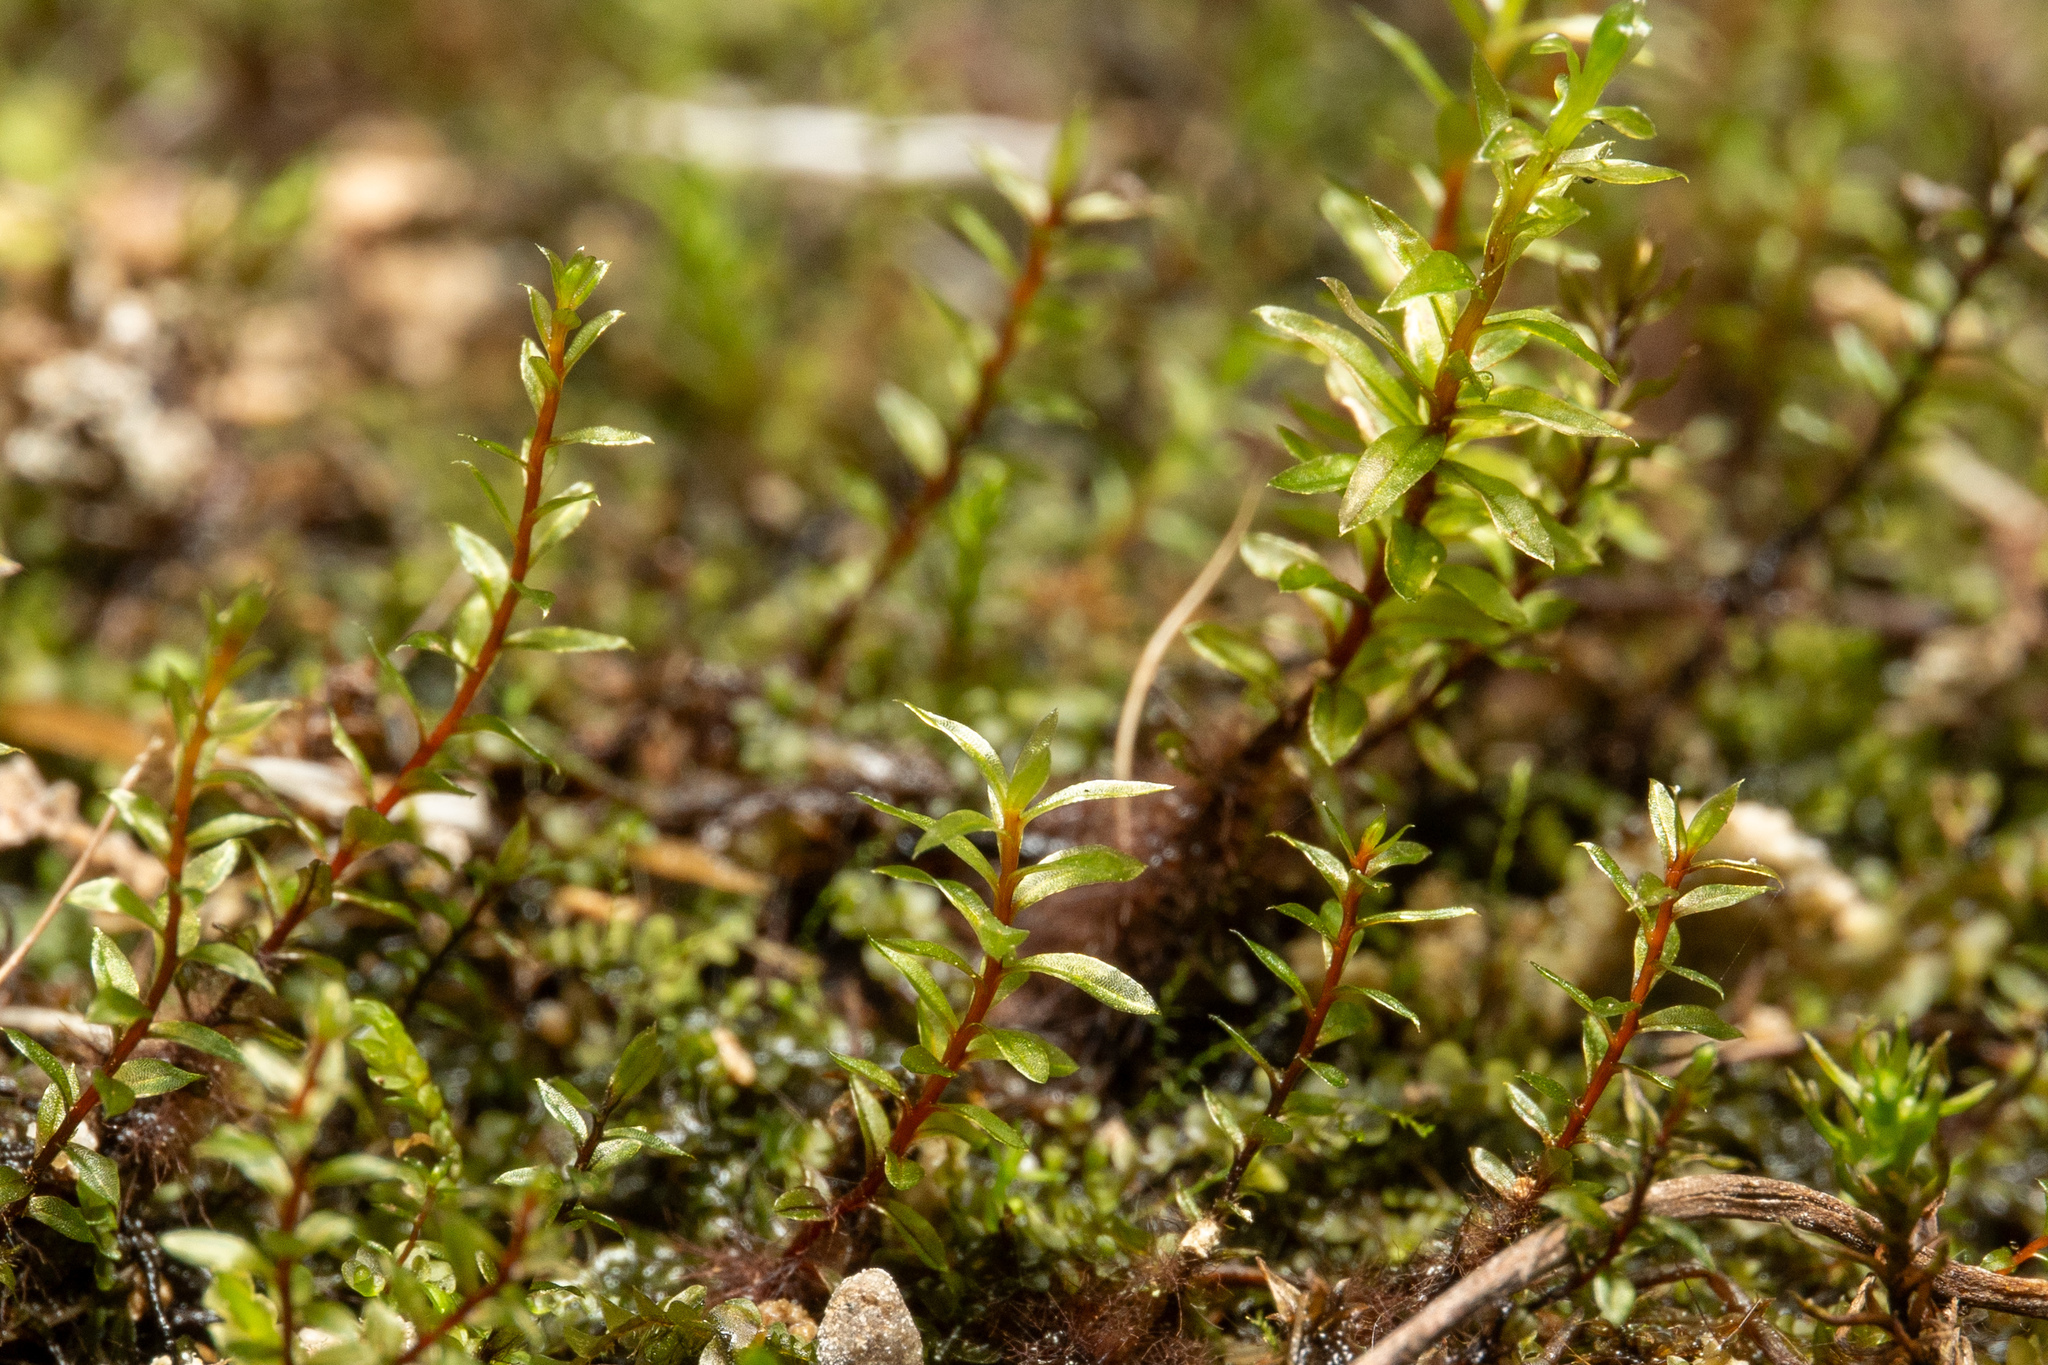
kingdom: Plantae
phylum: Bryophyta
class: Bryopsida
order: Bryales
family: Bryaceae
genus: Ptychostomum
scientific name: Ptychostomum pseudotriquetrum
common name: Long-leaved thread moss
